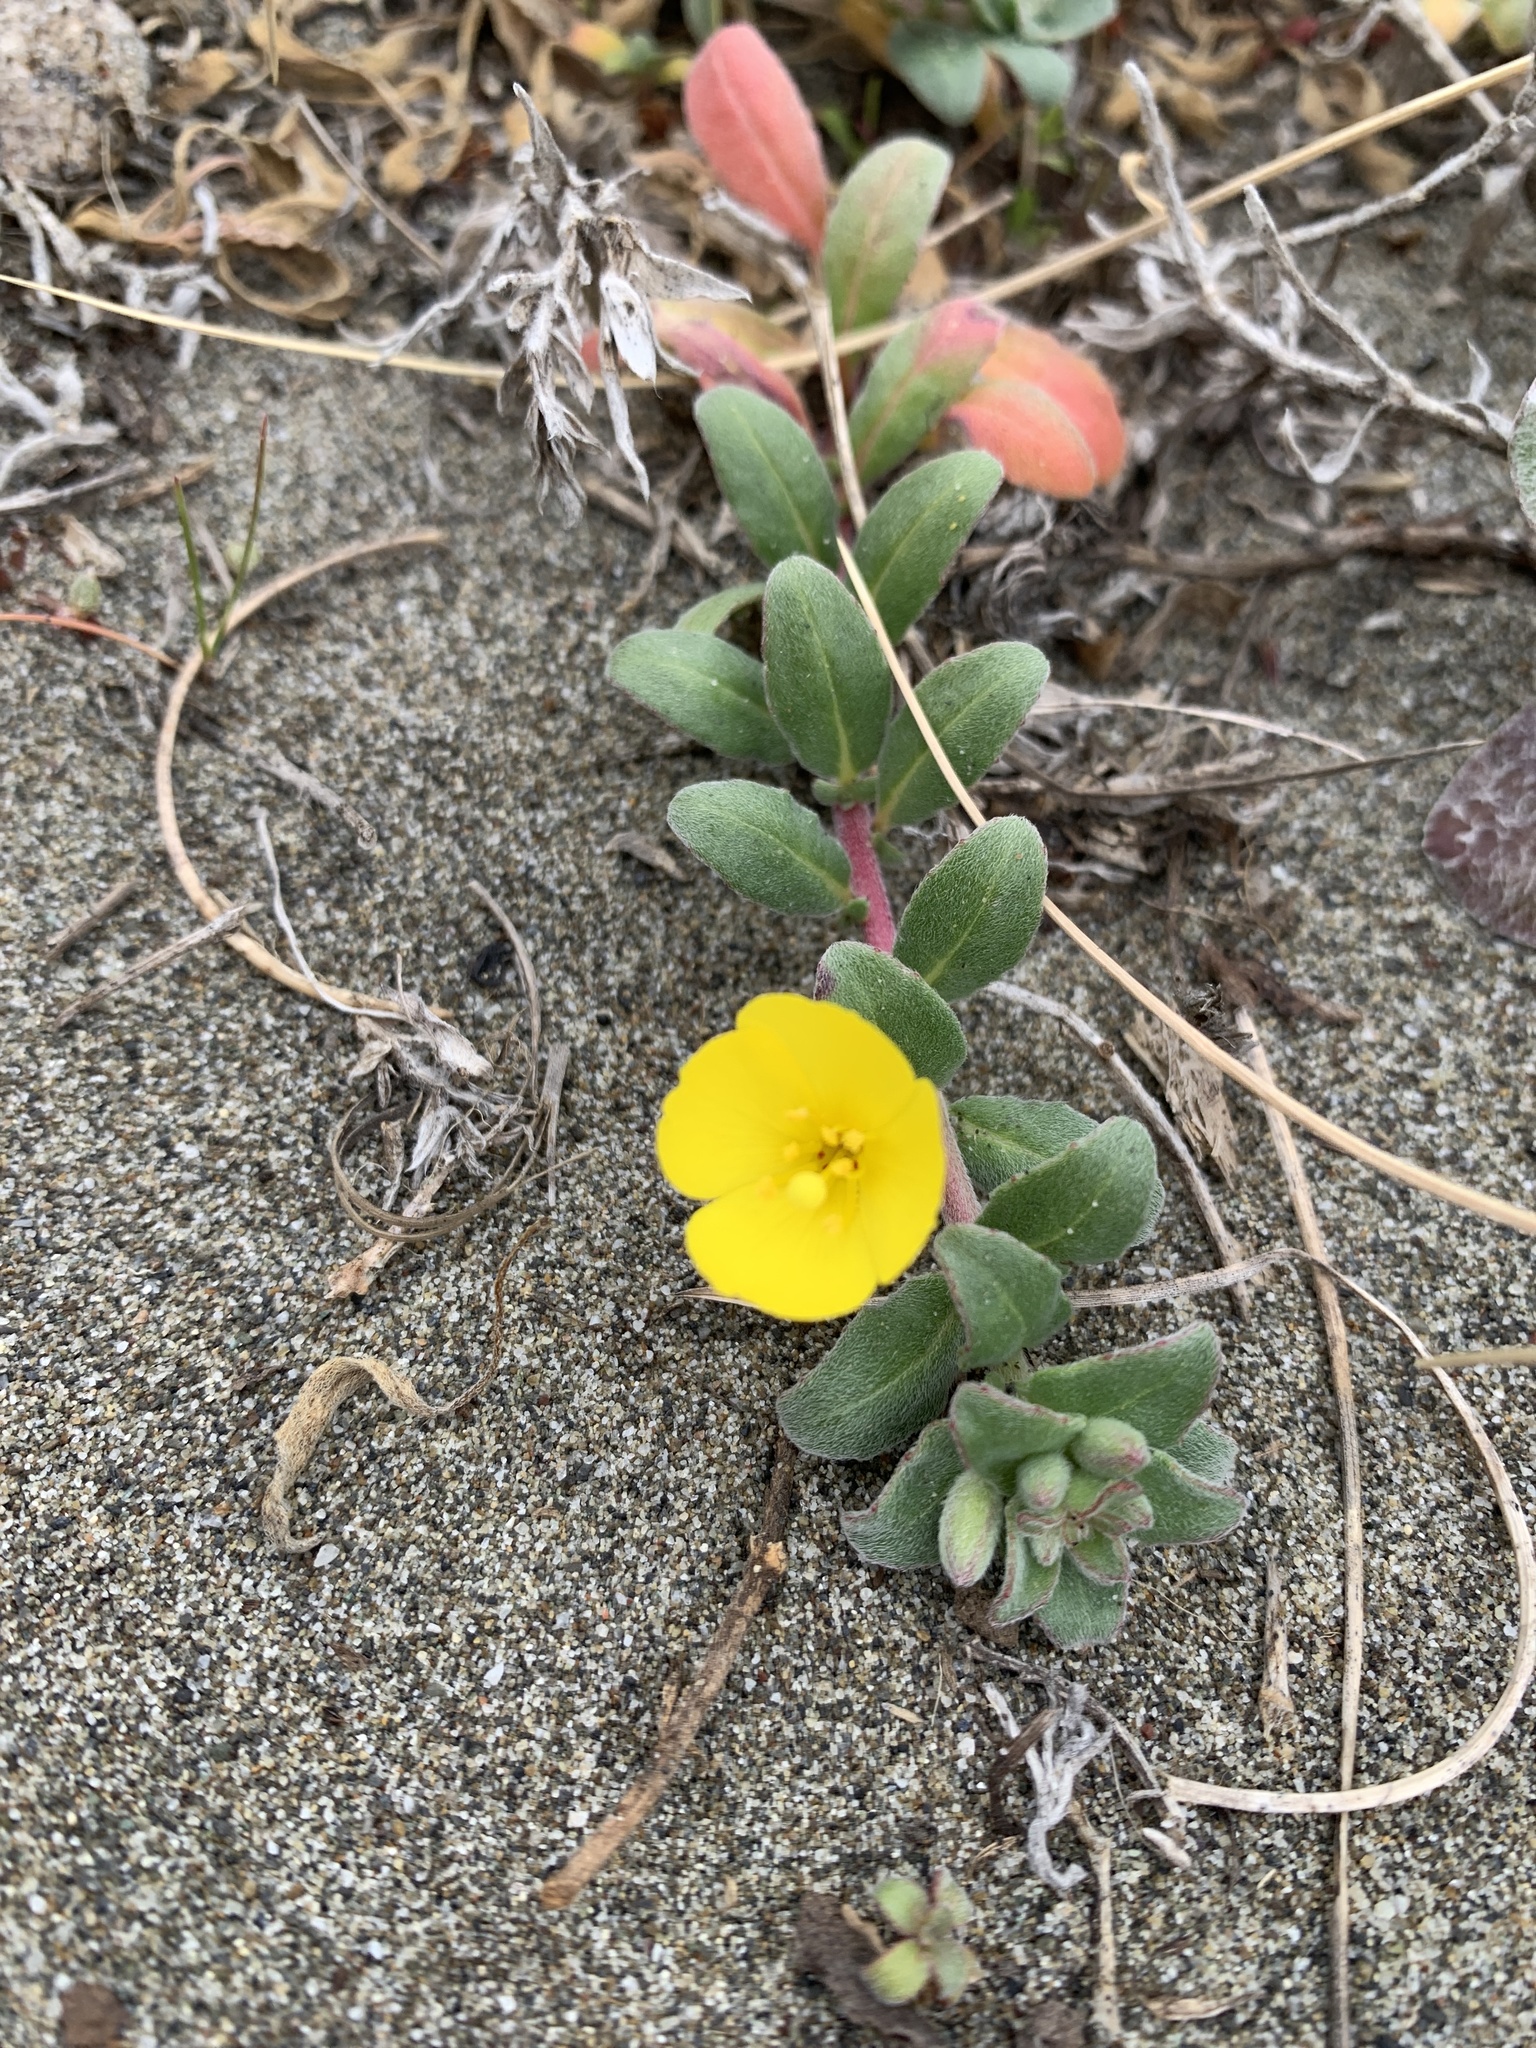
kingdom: Plantae
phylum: Tracheophyta
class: Magnoliopsida
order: Myrtales
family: Onagraceae
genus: Camissoniopsis
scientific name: Camissoniopsis cheiranthifolia
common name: Beach suncup
